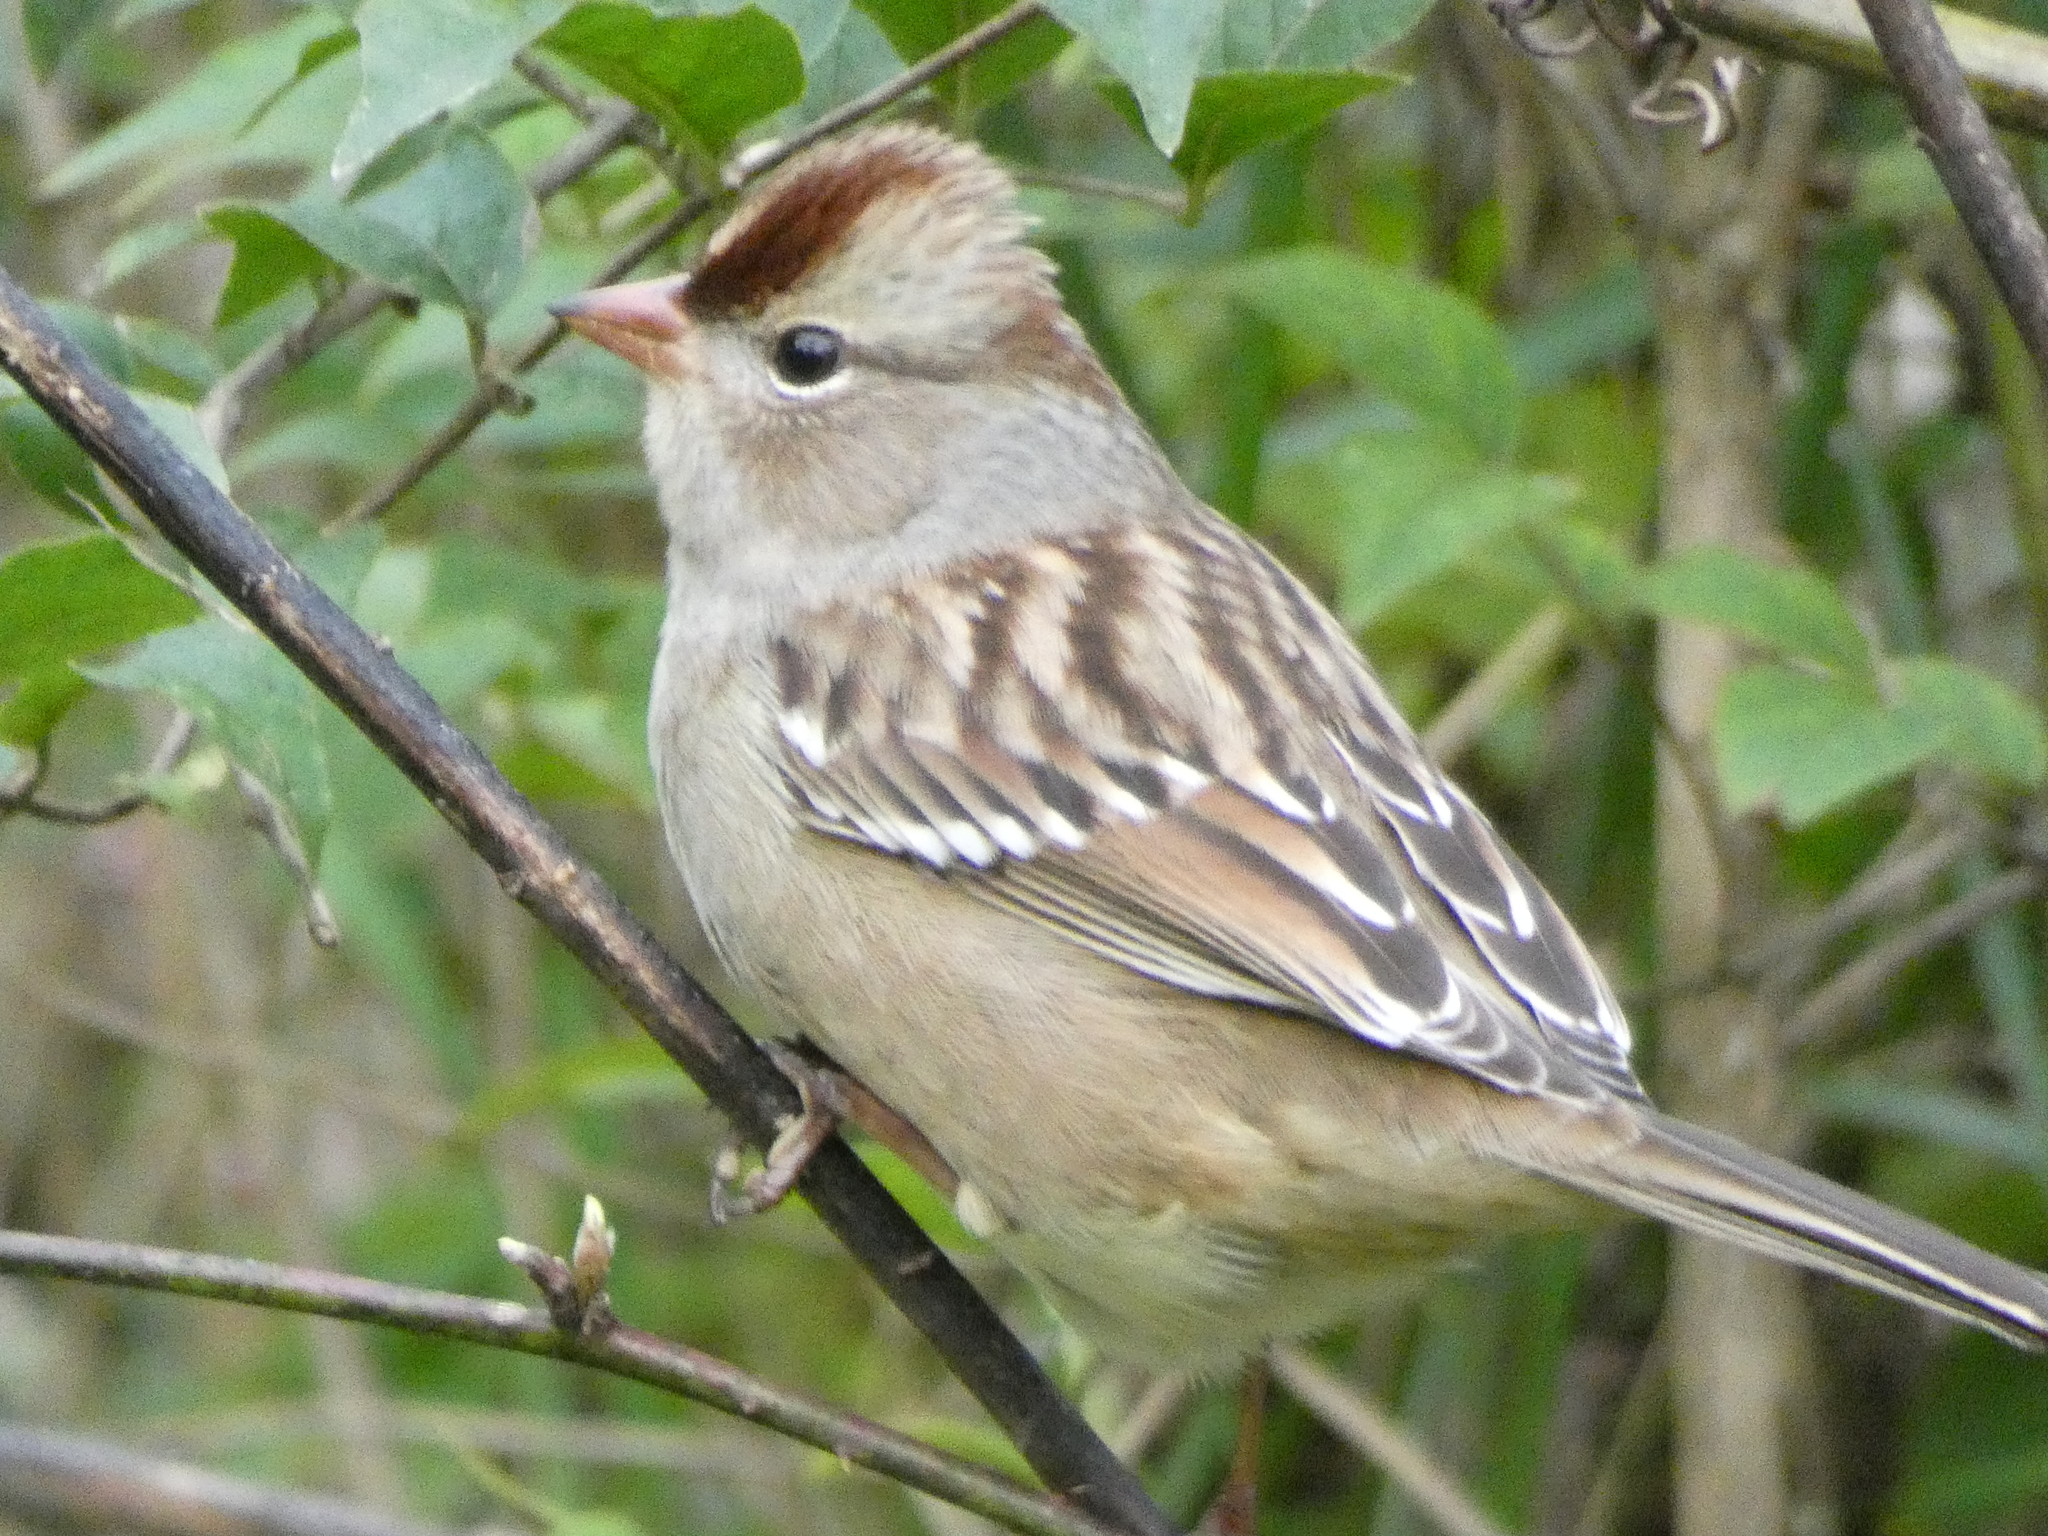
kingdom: Animalia
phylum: Chordata
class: Aves
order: Passeriformes
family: Passerellidae
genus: Zonotrichia
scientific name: Zonotrichia leucophrys
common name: White-crowned sparrow
